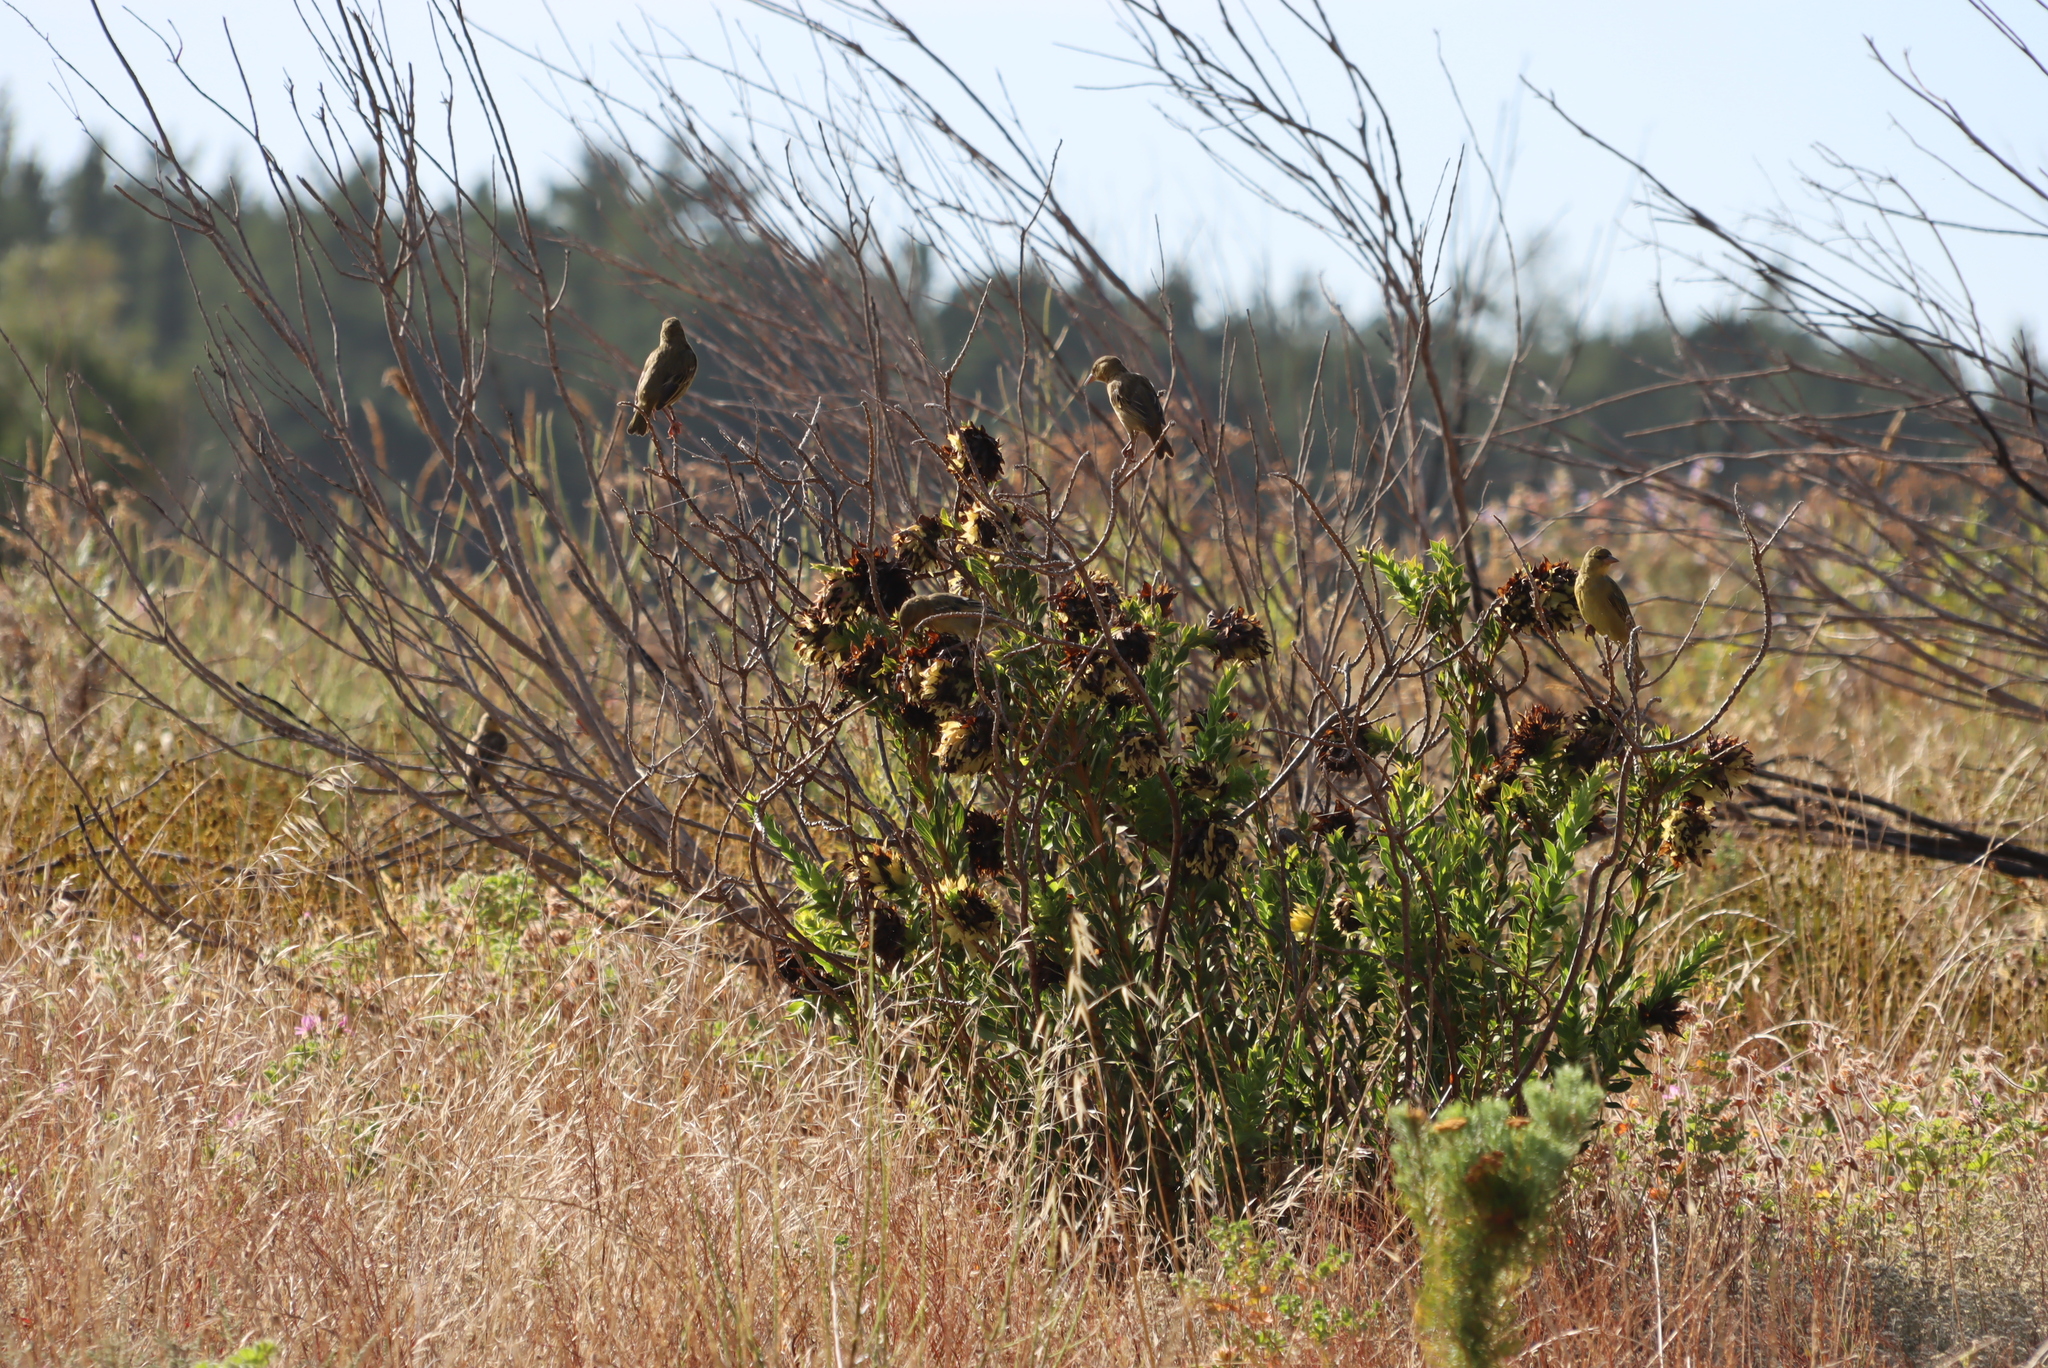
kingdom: Animalia
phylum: Chordata
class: Aves
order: Passeriformes
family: Ploceidae
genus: Ploceus
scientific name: Ploceus capensis
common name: Cape weaver
